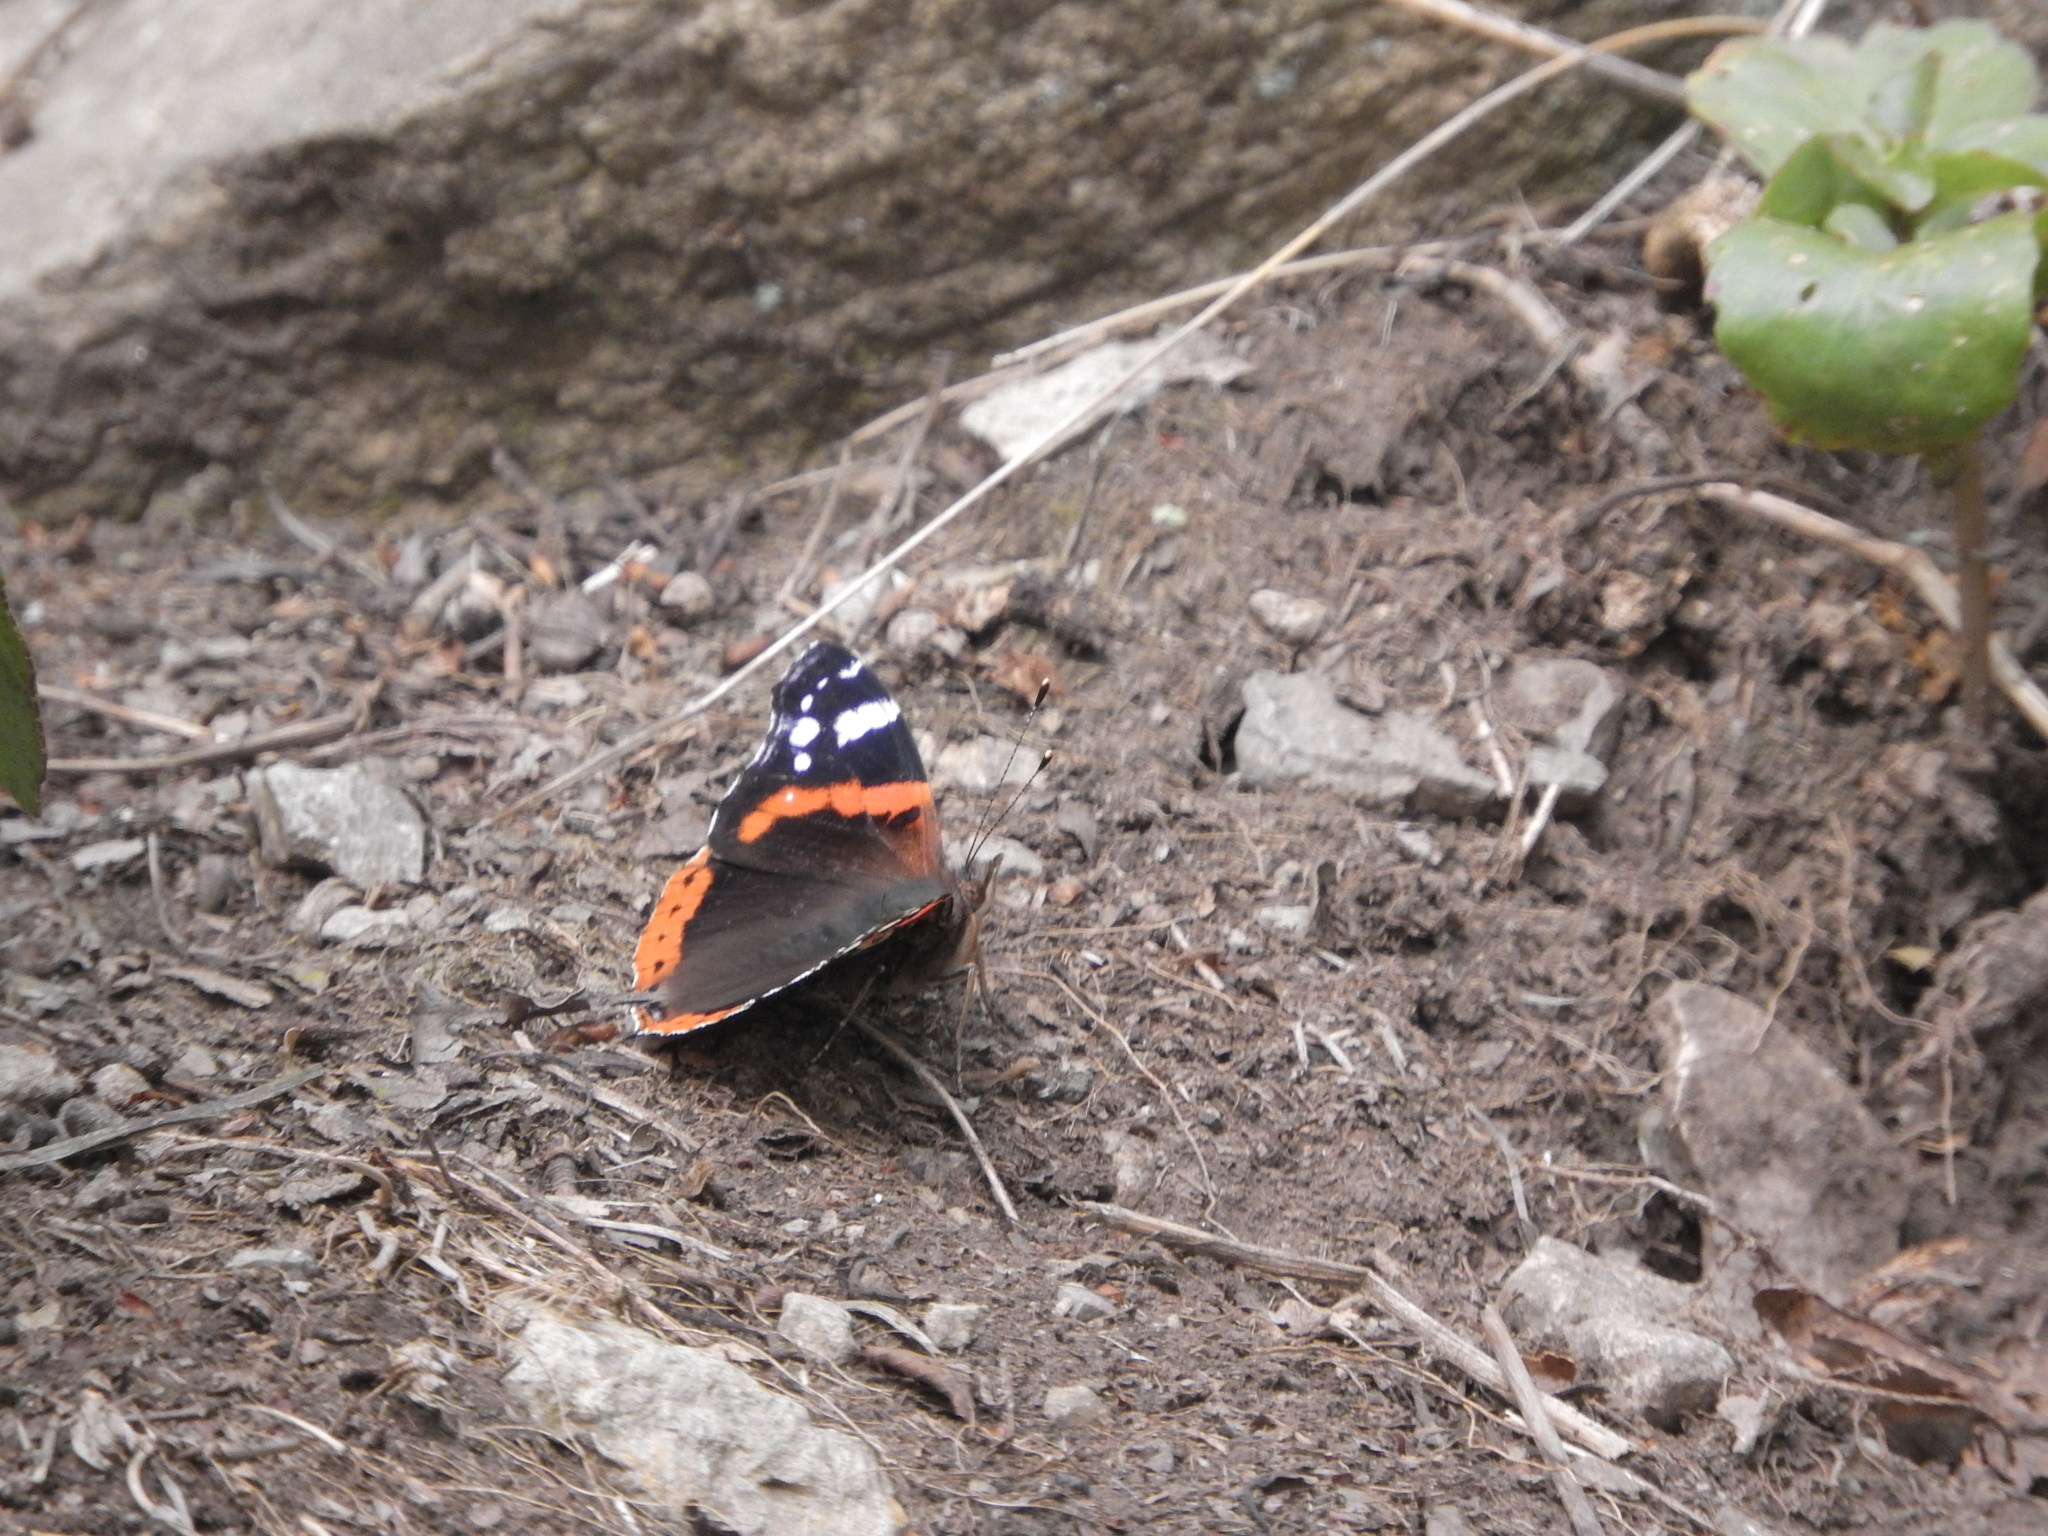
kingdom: Animalia
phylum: Arthropoda
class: Insecta
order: Lepidoptera
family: Nymphalidae
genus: Vanessa
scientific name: Vanessa atalanta
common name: Red admiral
